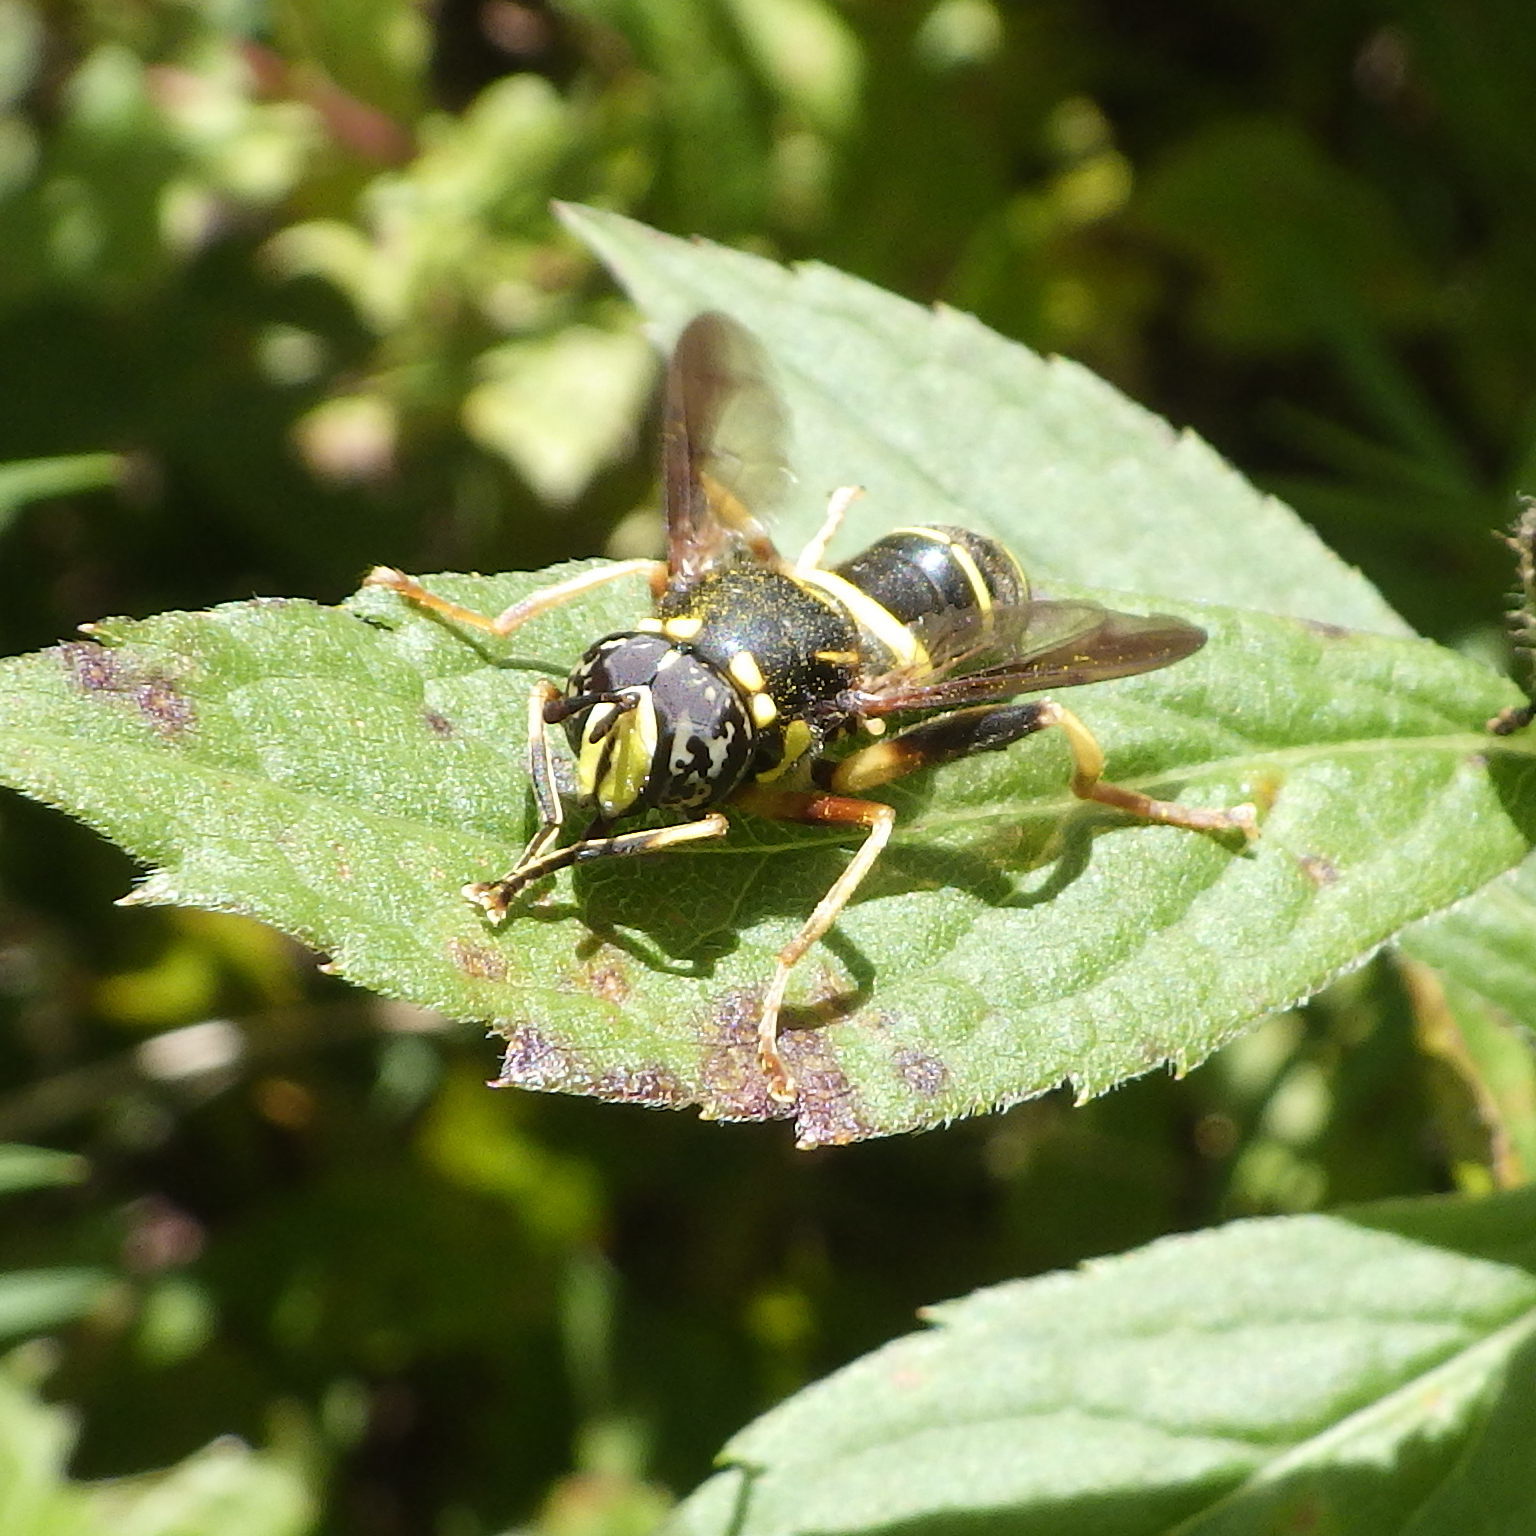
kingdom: Animalia
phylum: Arthropoda
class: Insecta
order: Diptera
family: Syrphidae
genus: Spilomyia
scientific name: Spilomyia sayi
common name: Four-lined hornet fly
